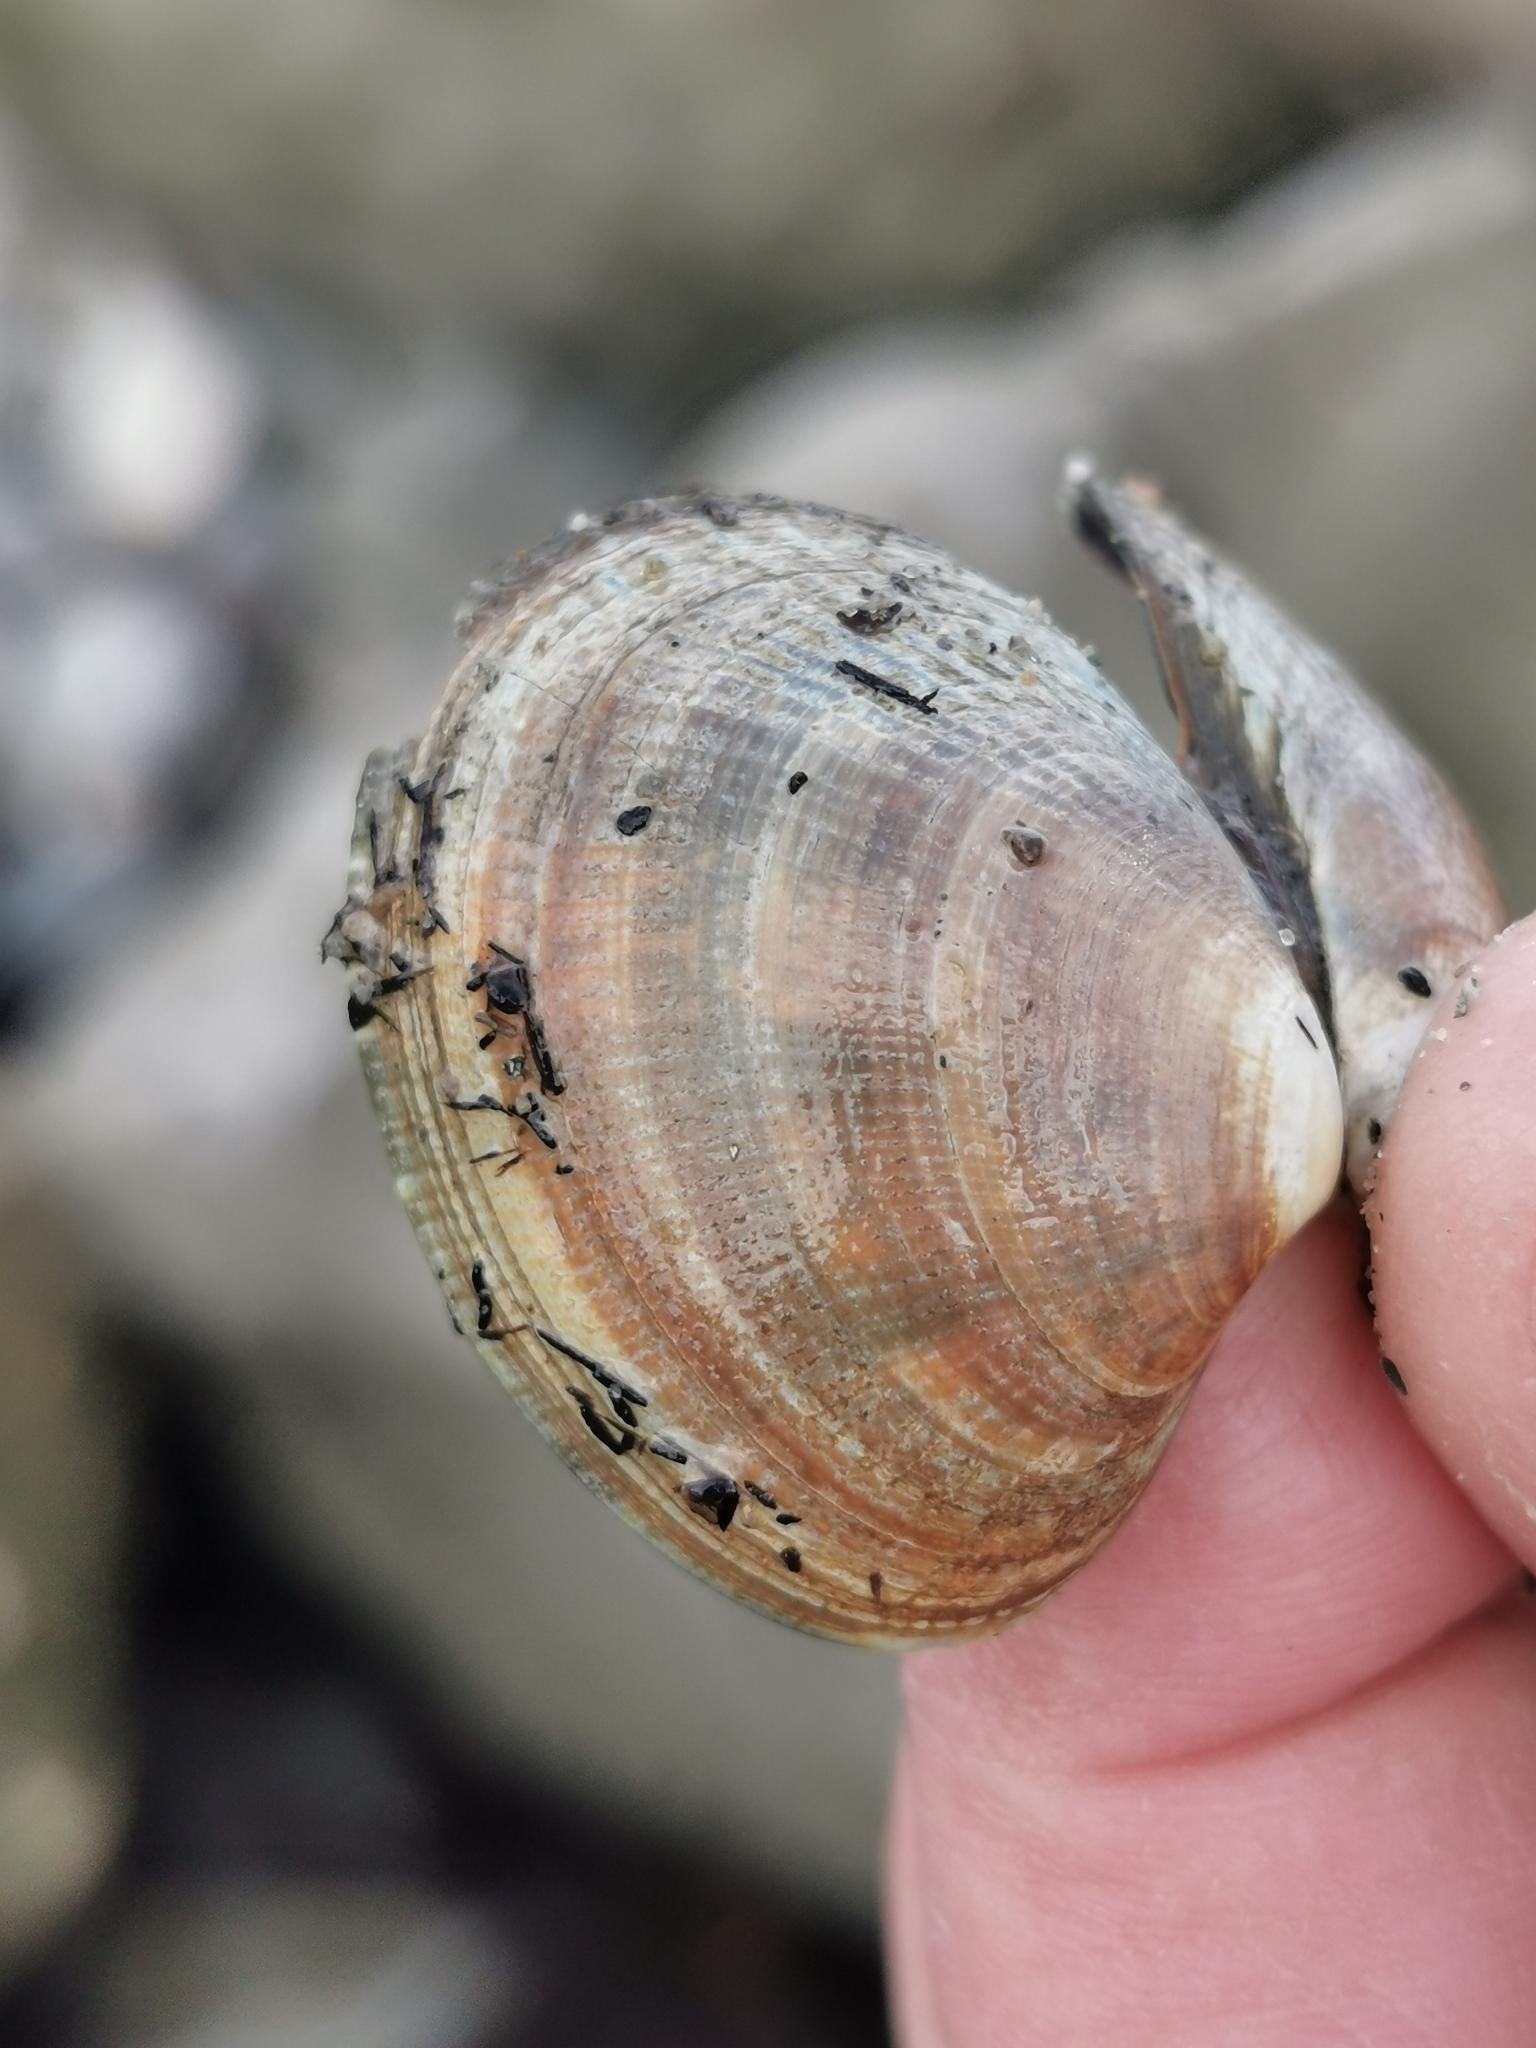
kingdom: Animalia
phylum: Mollusca
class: Bivalvia
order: Venerida
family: Veneridae
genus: Ruditapes
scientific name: Ruditapes philippinarum
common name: Manila clam
